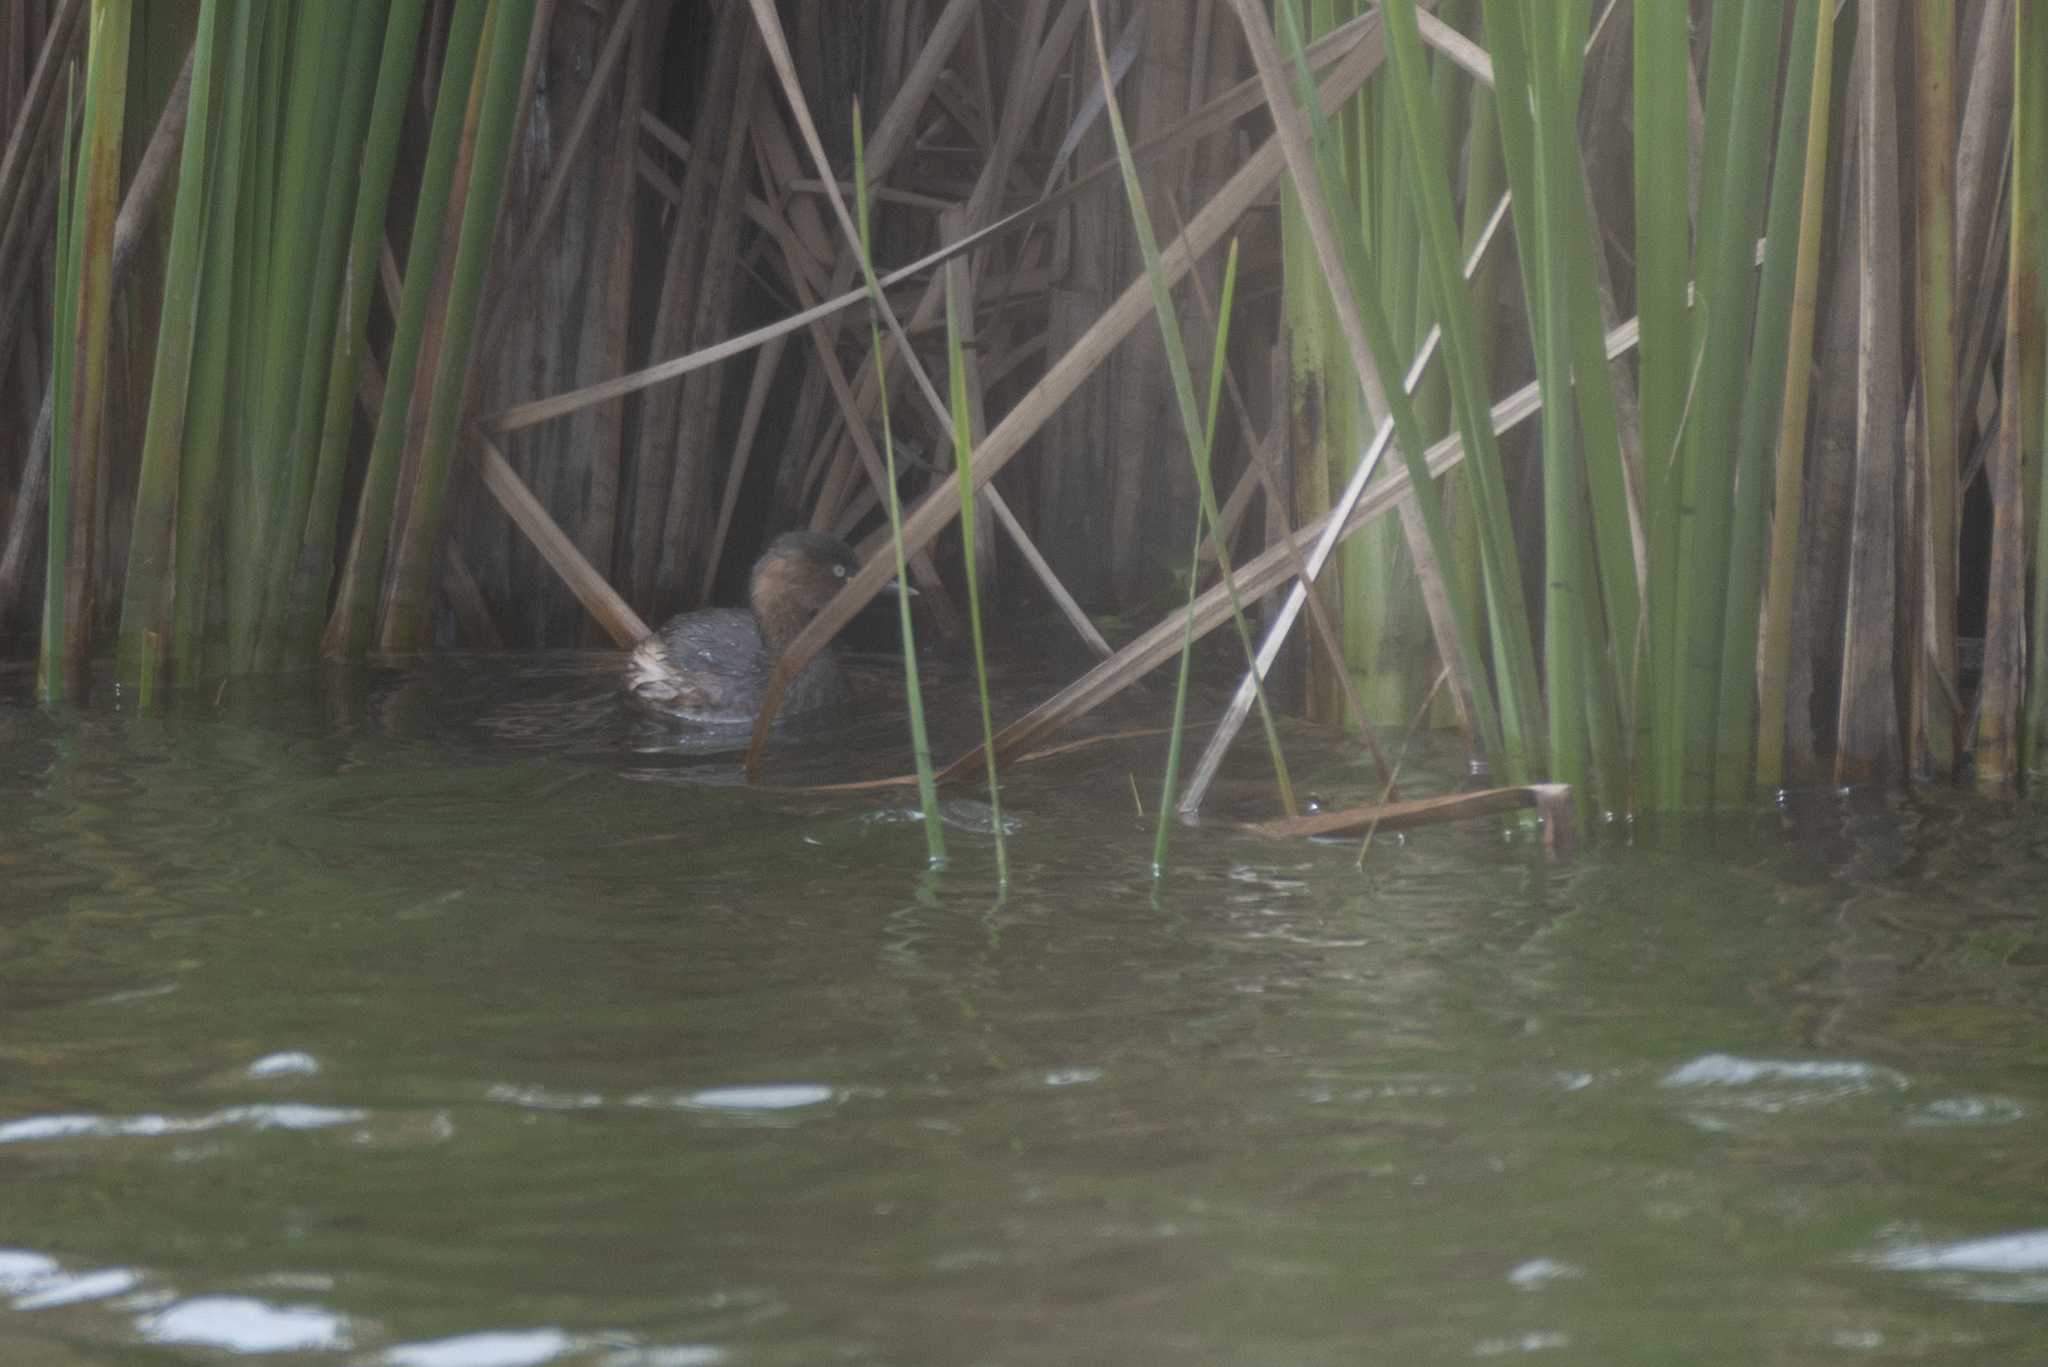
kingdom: Animalia
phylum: Chordata
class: Aves
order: Podicipediformes
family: Podicipedidae
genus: Tachybaptus
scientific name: Tachybaptus ruficollis
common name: Little grebe
